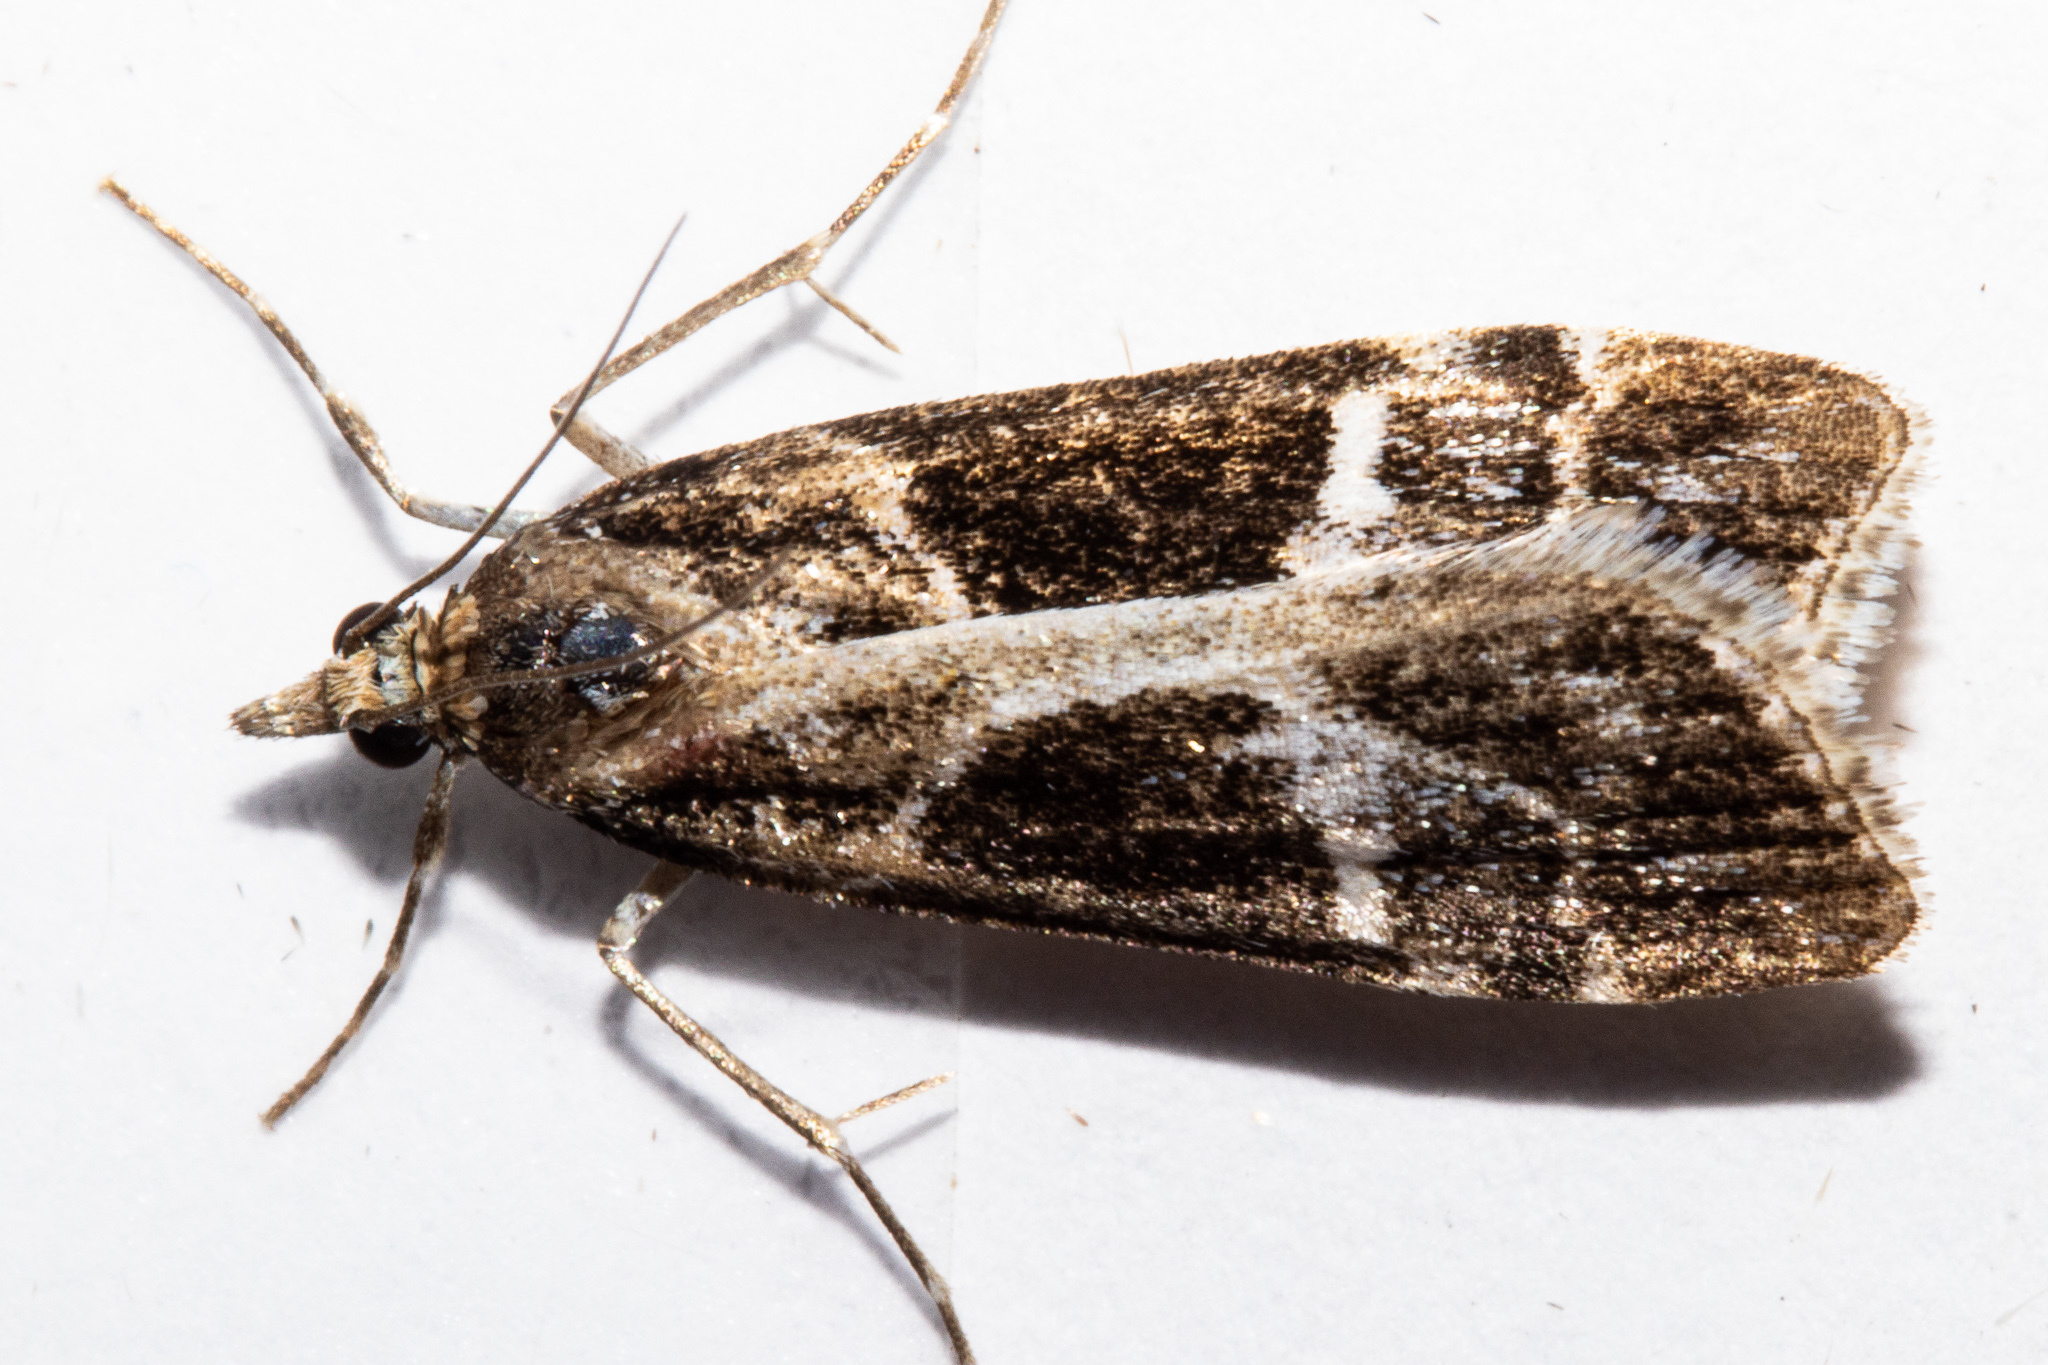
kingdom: Animalia
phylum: Arthropoda
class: Insecta
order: Lepidoptera
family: Crambidae
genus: Eudonia
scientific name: Eudonia melanaegis
